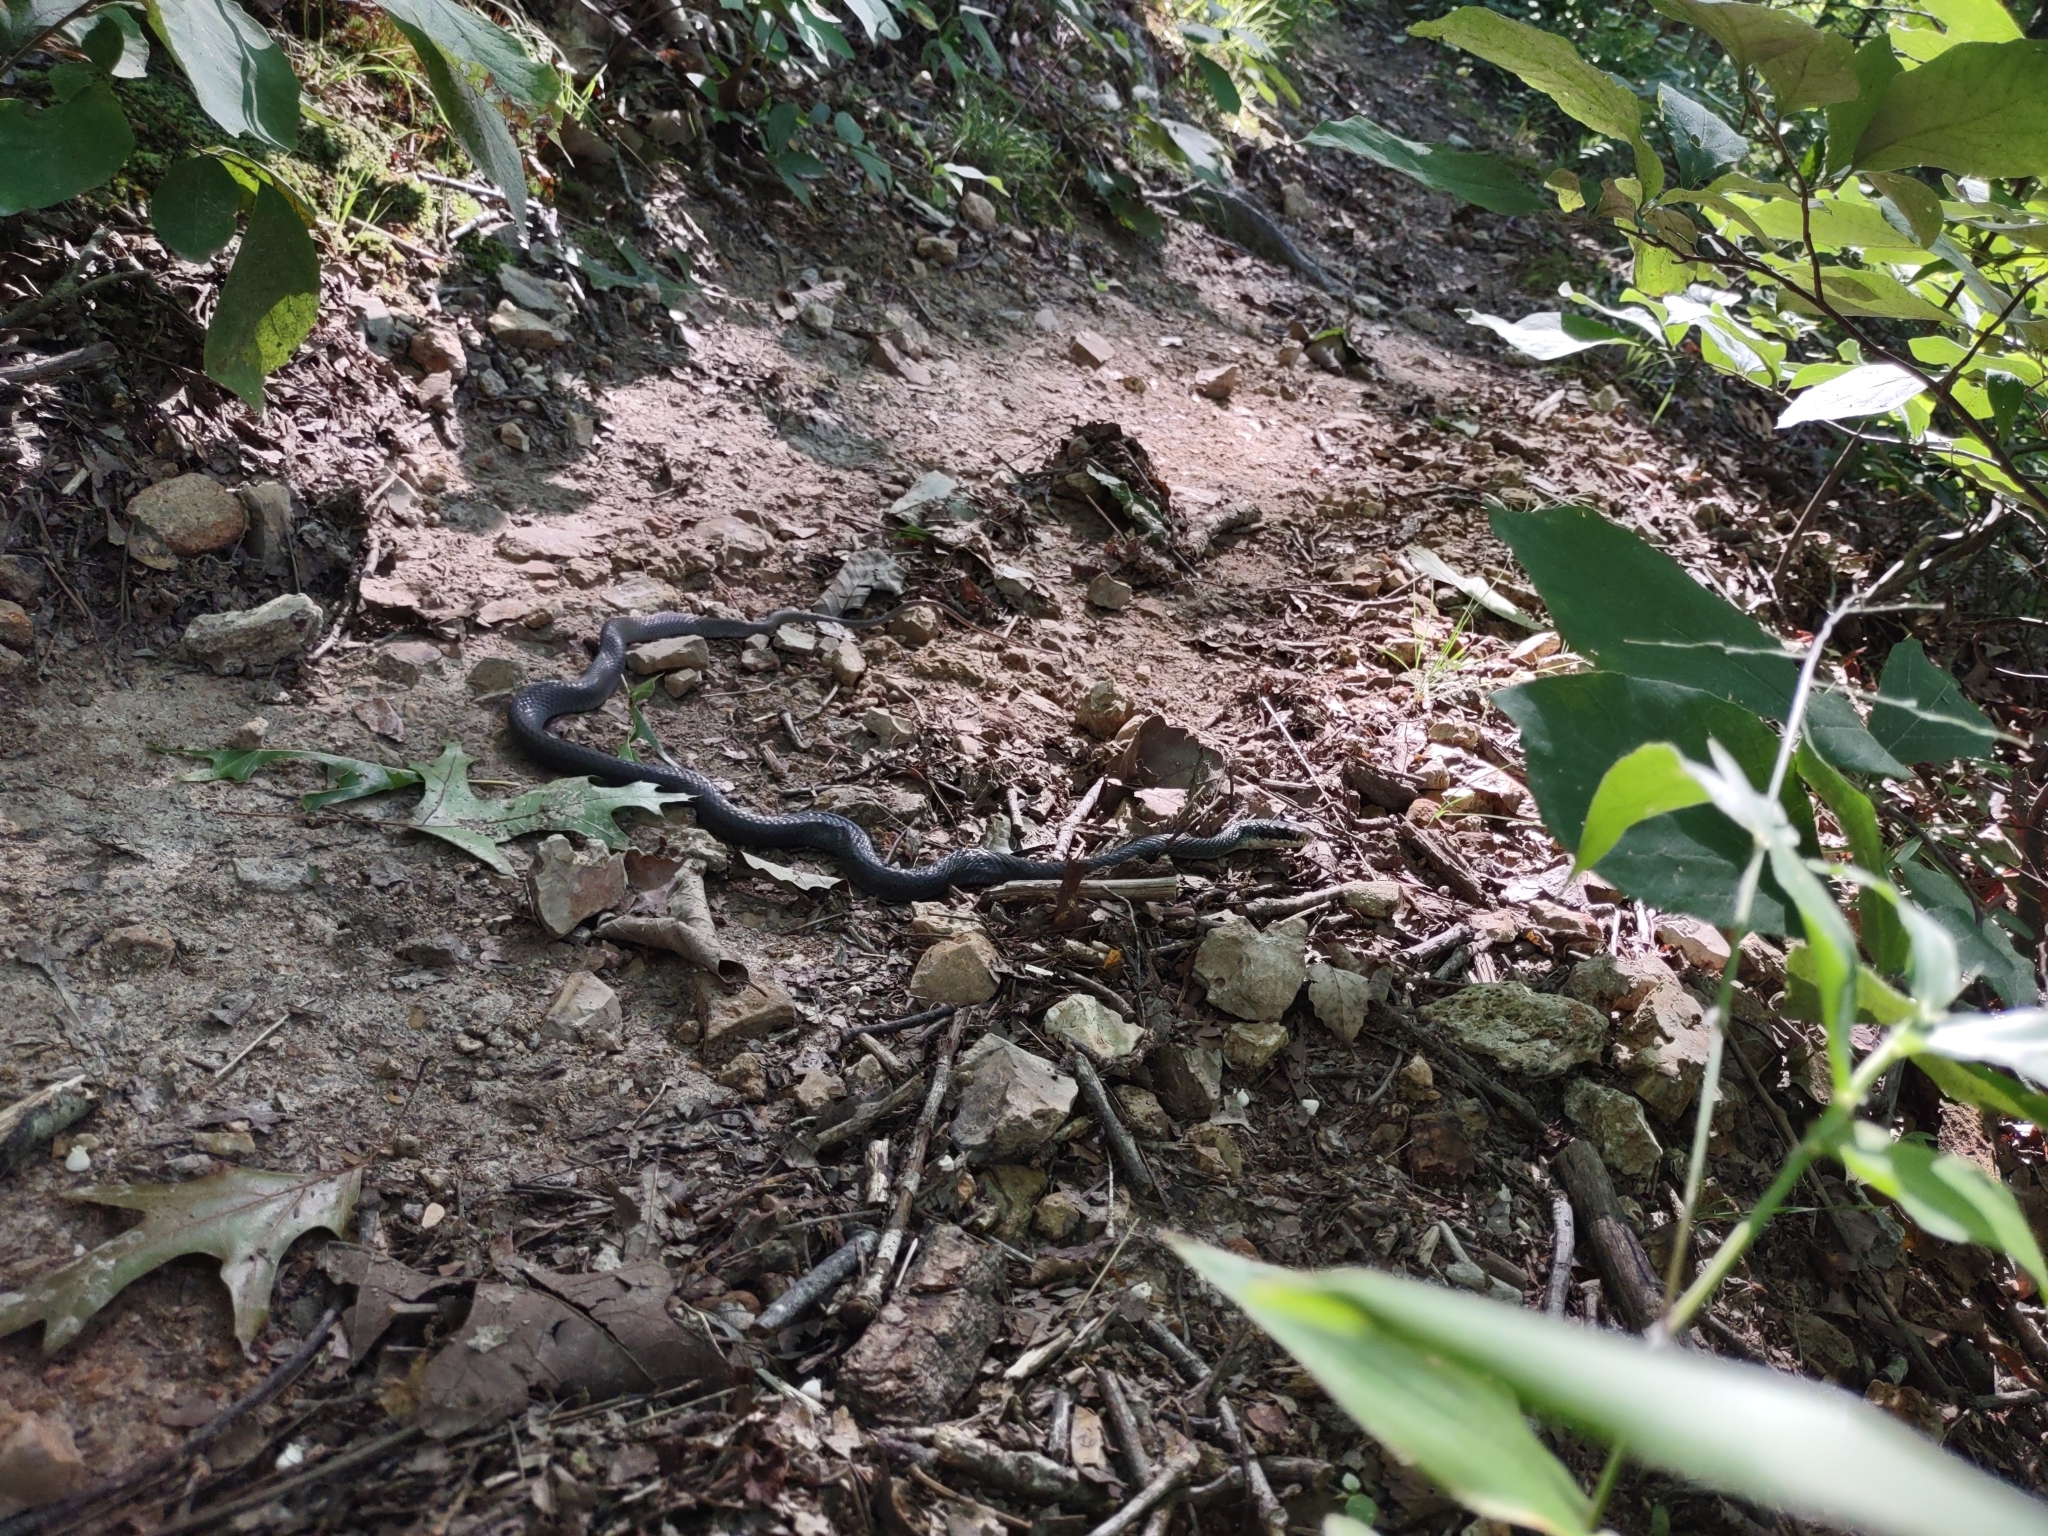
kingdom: Animalia
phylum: Chordata
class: Squamata
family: Colubridae
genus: Pantherophis
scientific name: Pantherophis spiloides
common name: Gray rat snake
